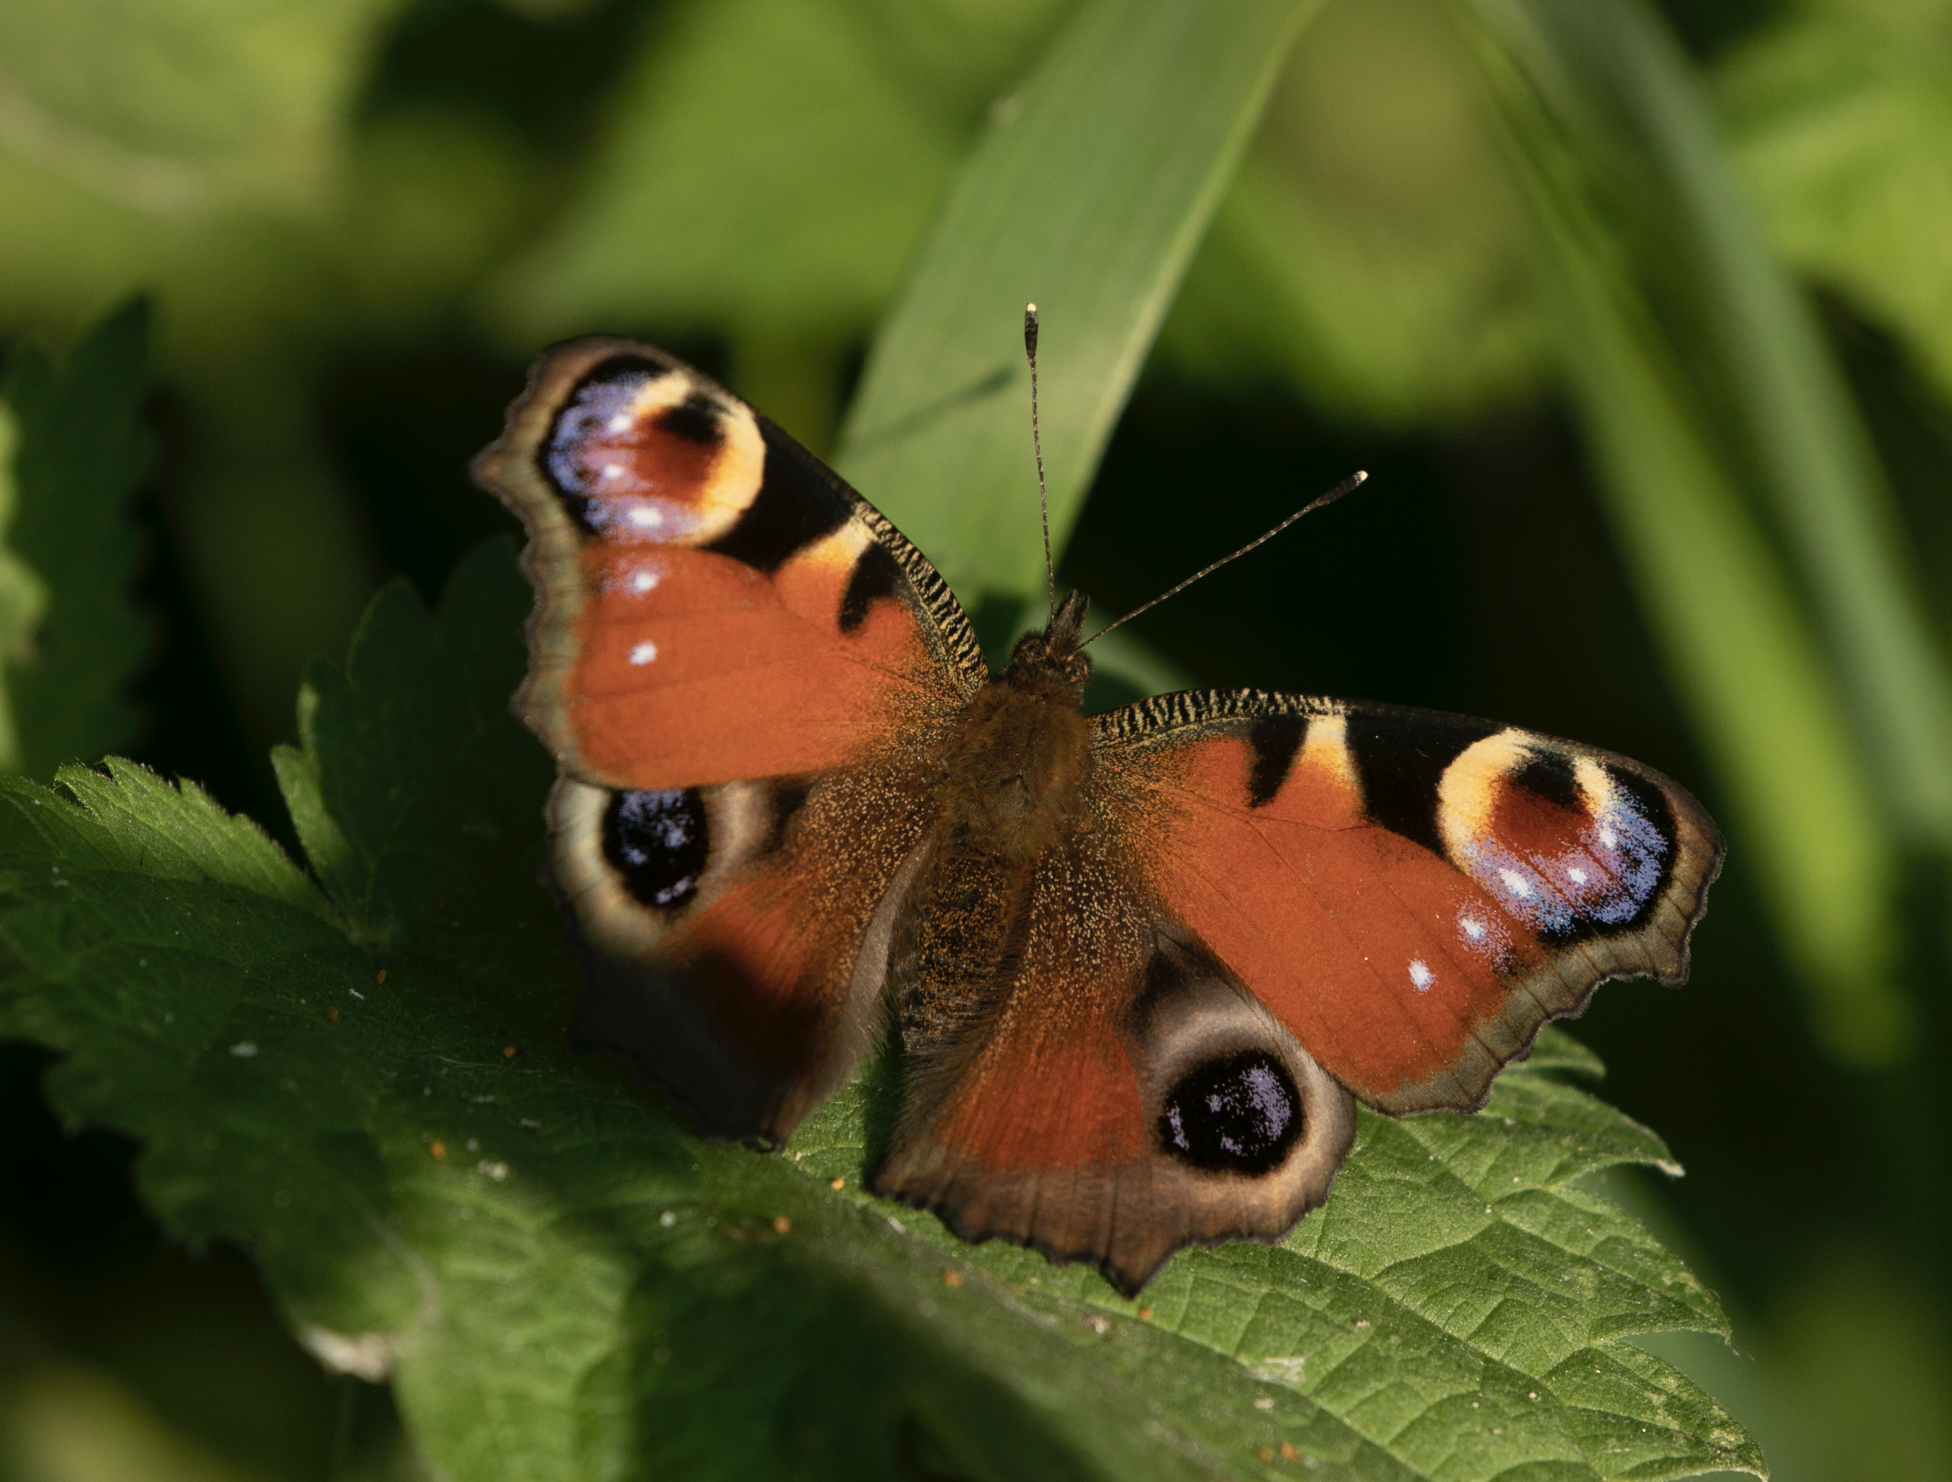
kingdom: Animalia
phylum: Arthropoda
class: Insecta
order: Lepidoptera
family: Nymphalidae
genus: Aglais
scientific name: Aglais io
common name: Peacock
